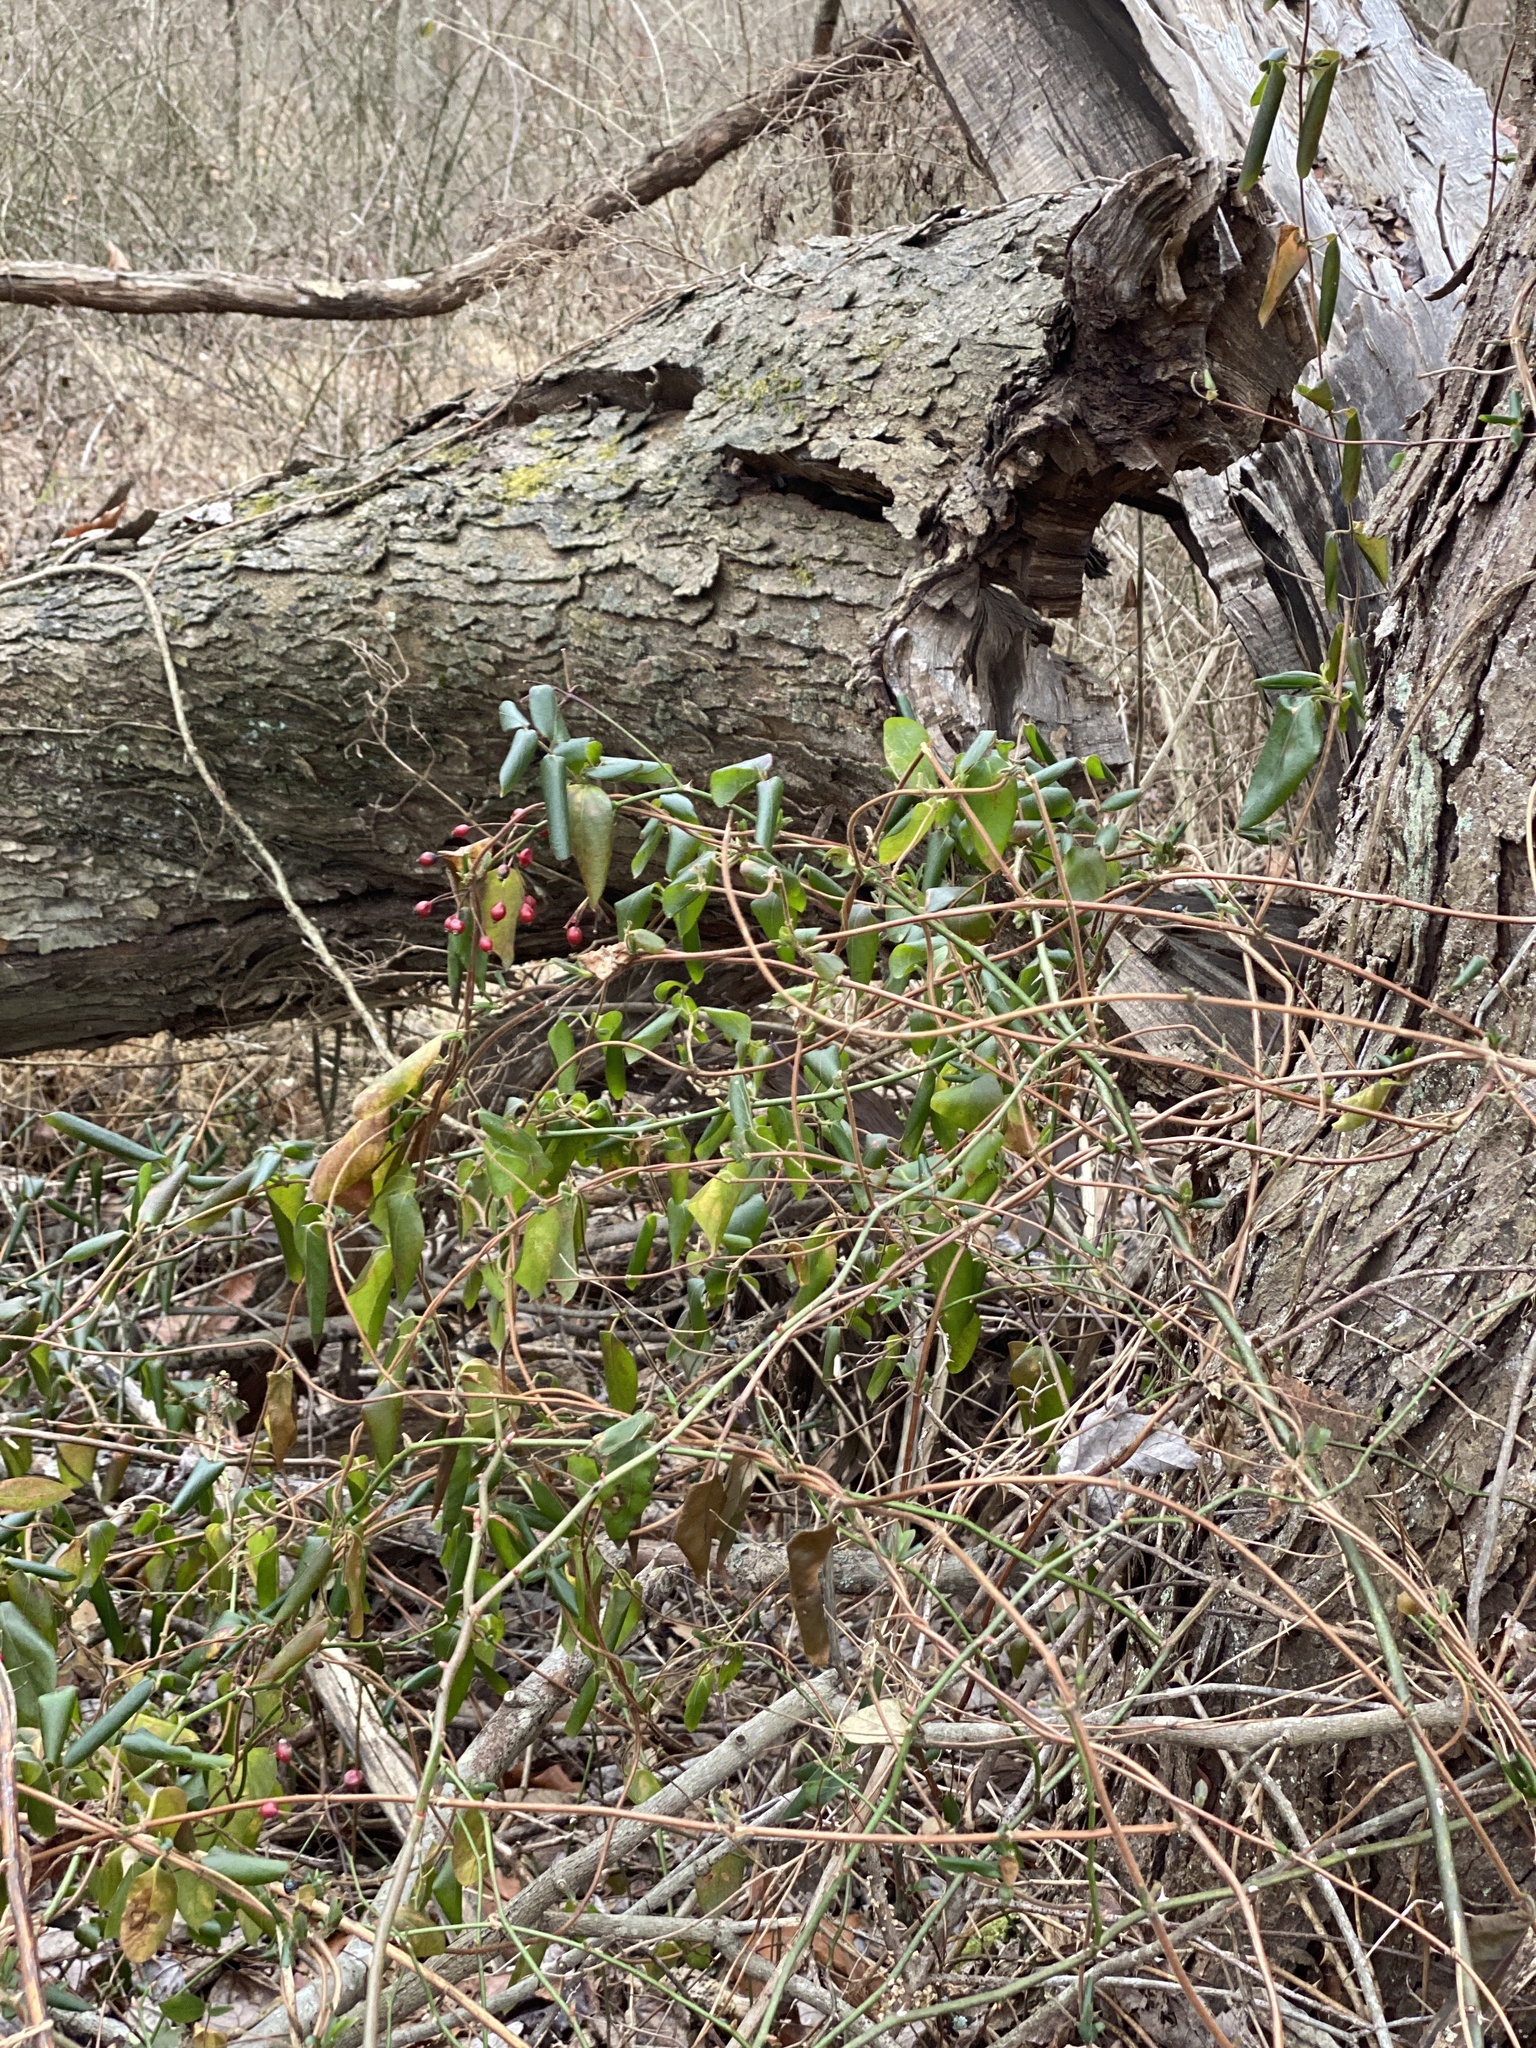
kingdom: Plantae
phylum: Tracheophyta
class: Magnoliopsida
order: Dipsacales
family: Caprifoliaceae
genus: Lonicera
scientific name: Lonicera japonica
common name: Japanese honeysuckle
